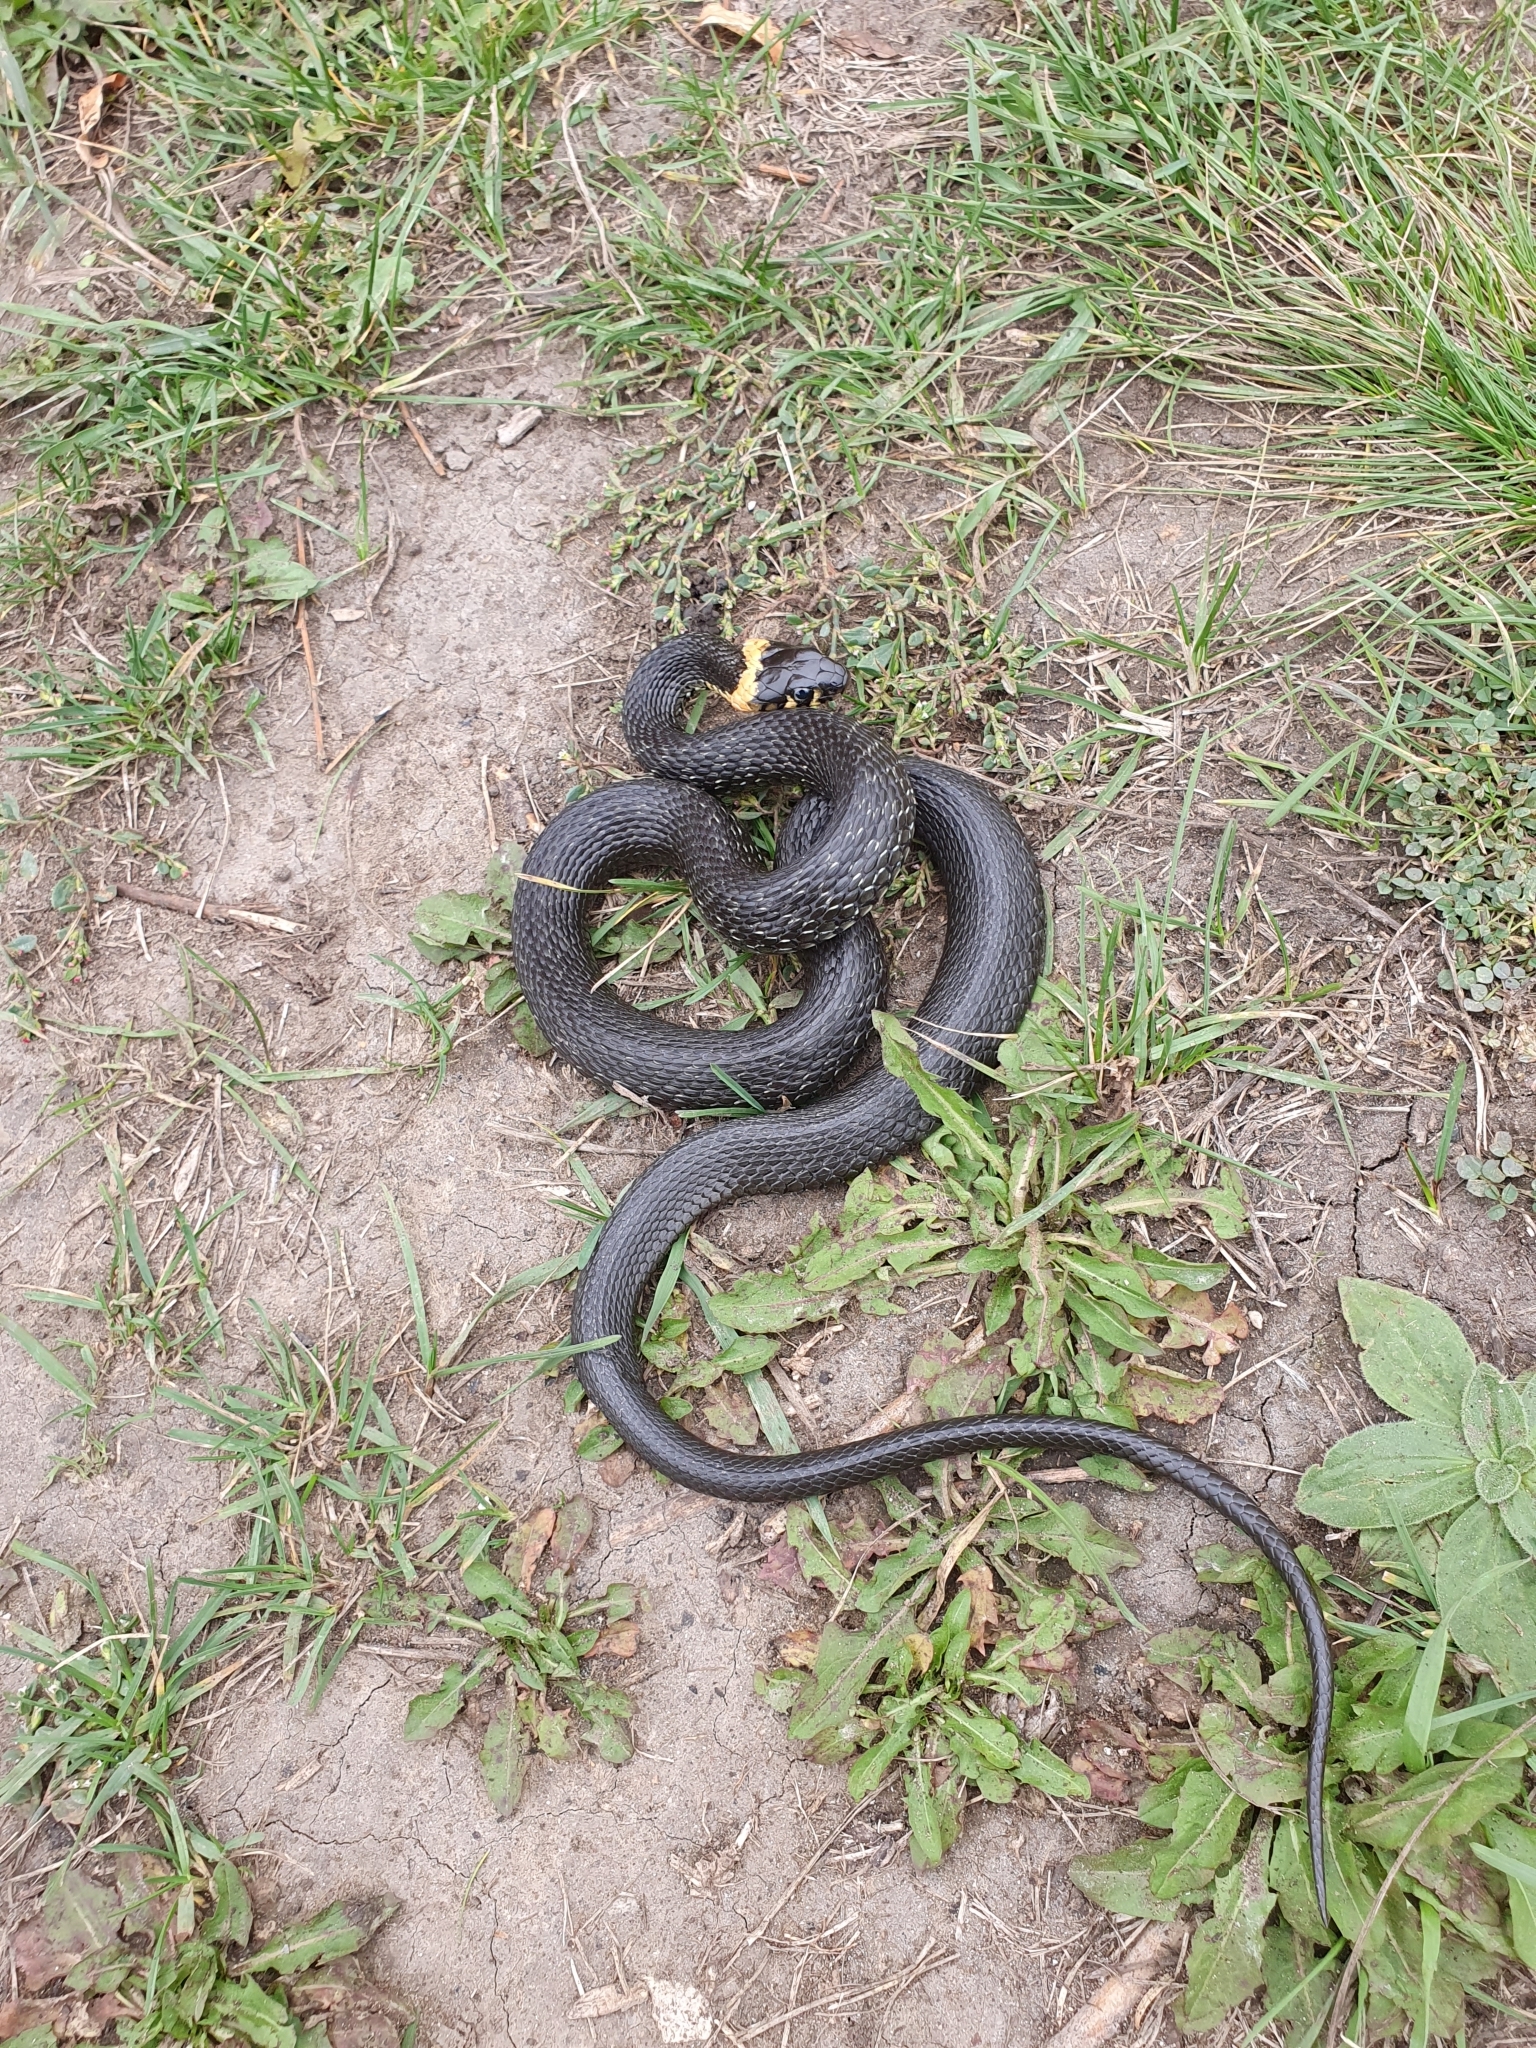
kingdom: Animalia
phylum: Chordata
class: Squamata
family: Colubridae
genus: Natrix
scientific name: Natrix natrix
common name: Grass snake
